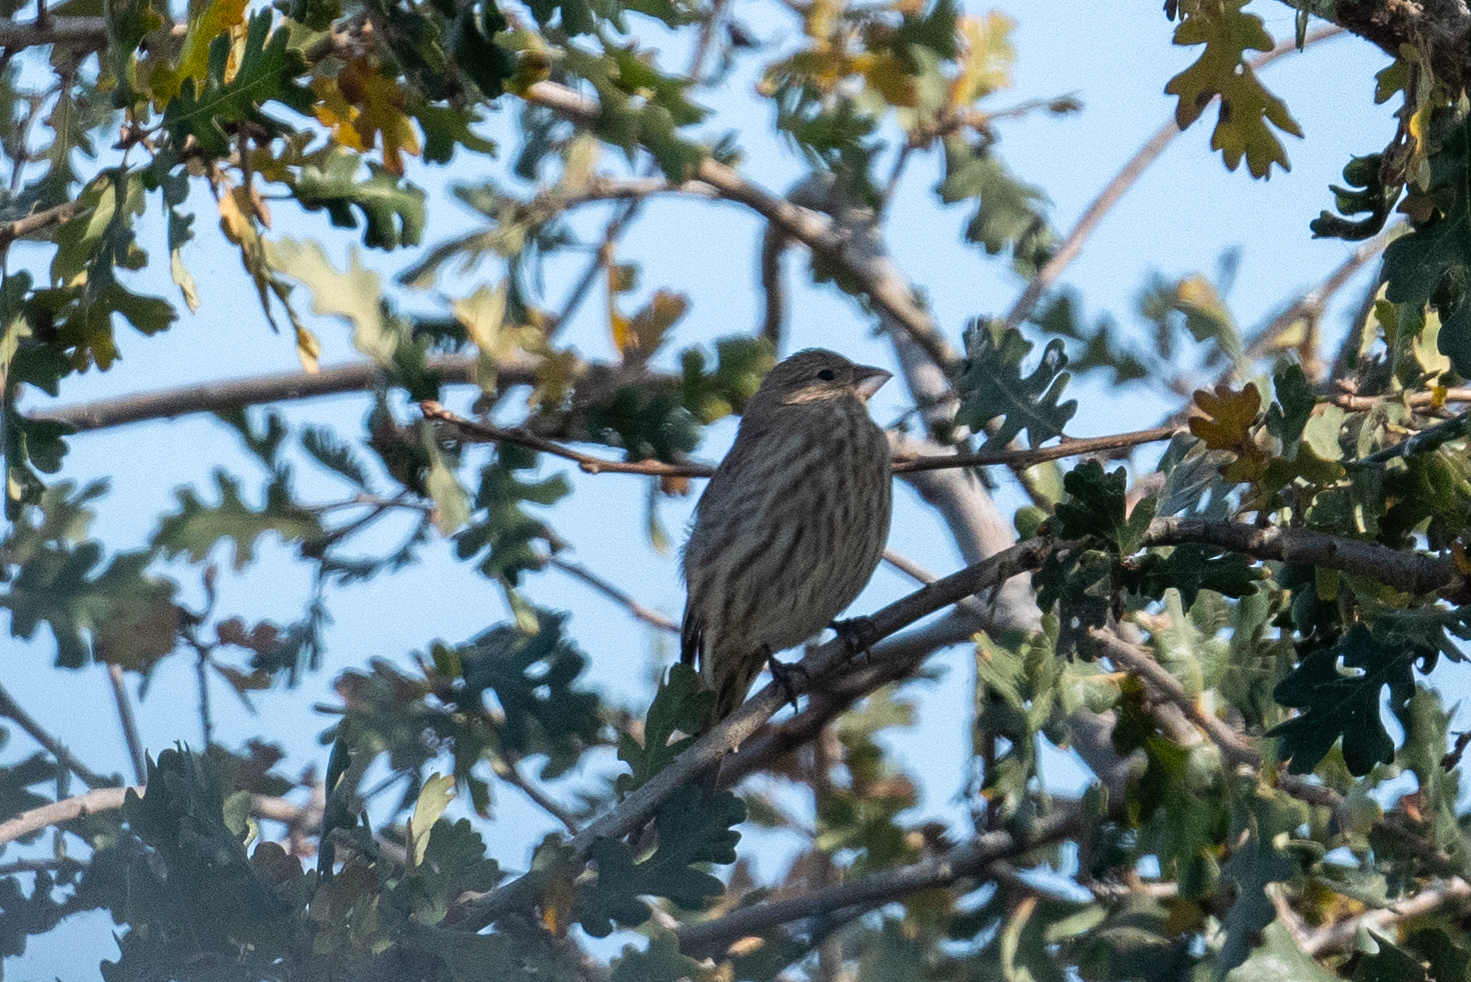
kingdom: Animalia
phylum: Chordata
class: Aves
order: Passeriformes
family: Fringillidae
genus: Haemorhous
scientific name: Haemorhous mexicanus
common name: House finch
